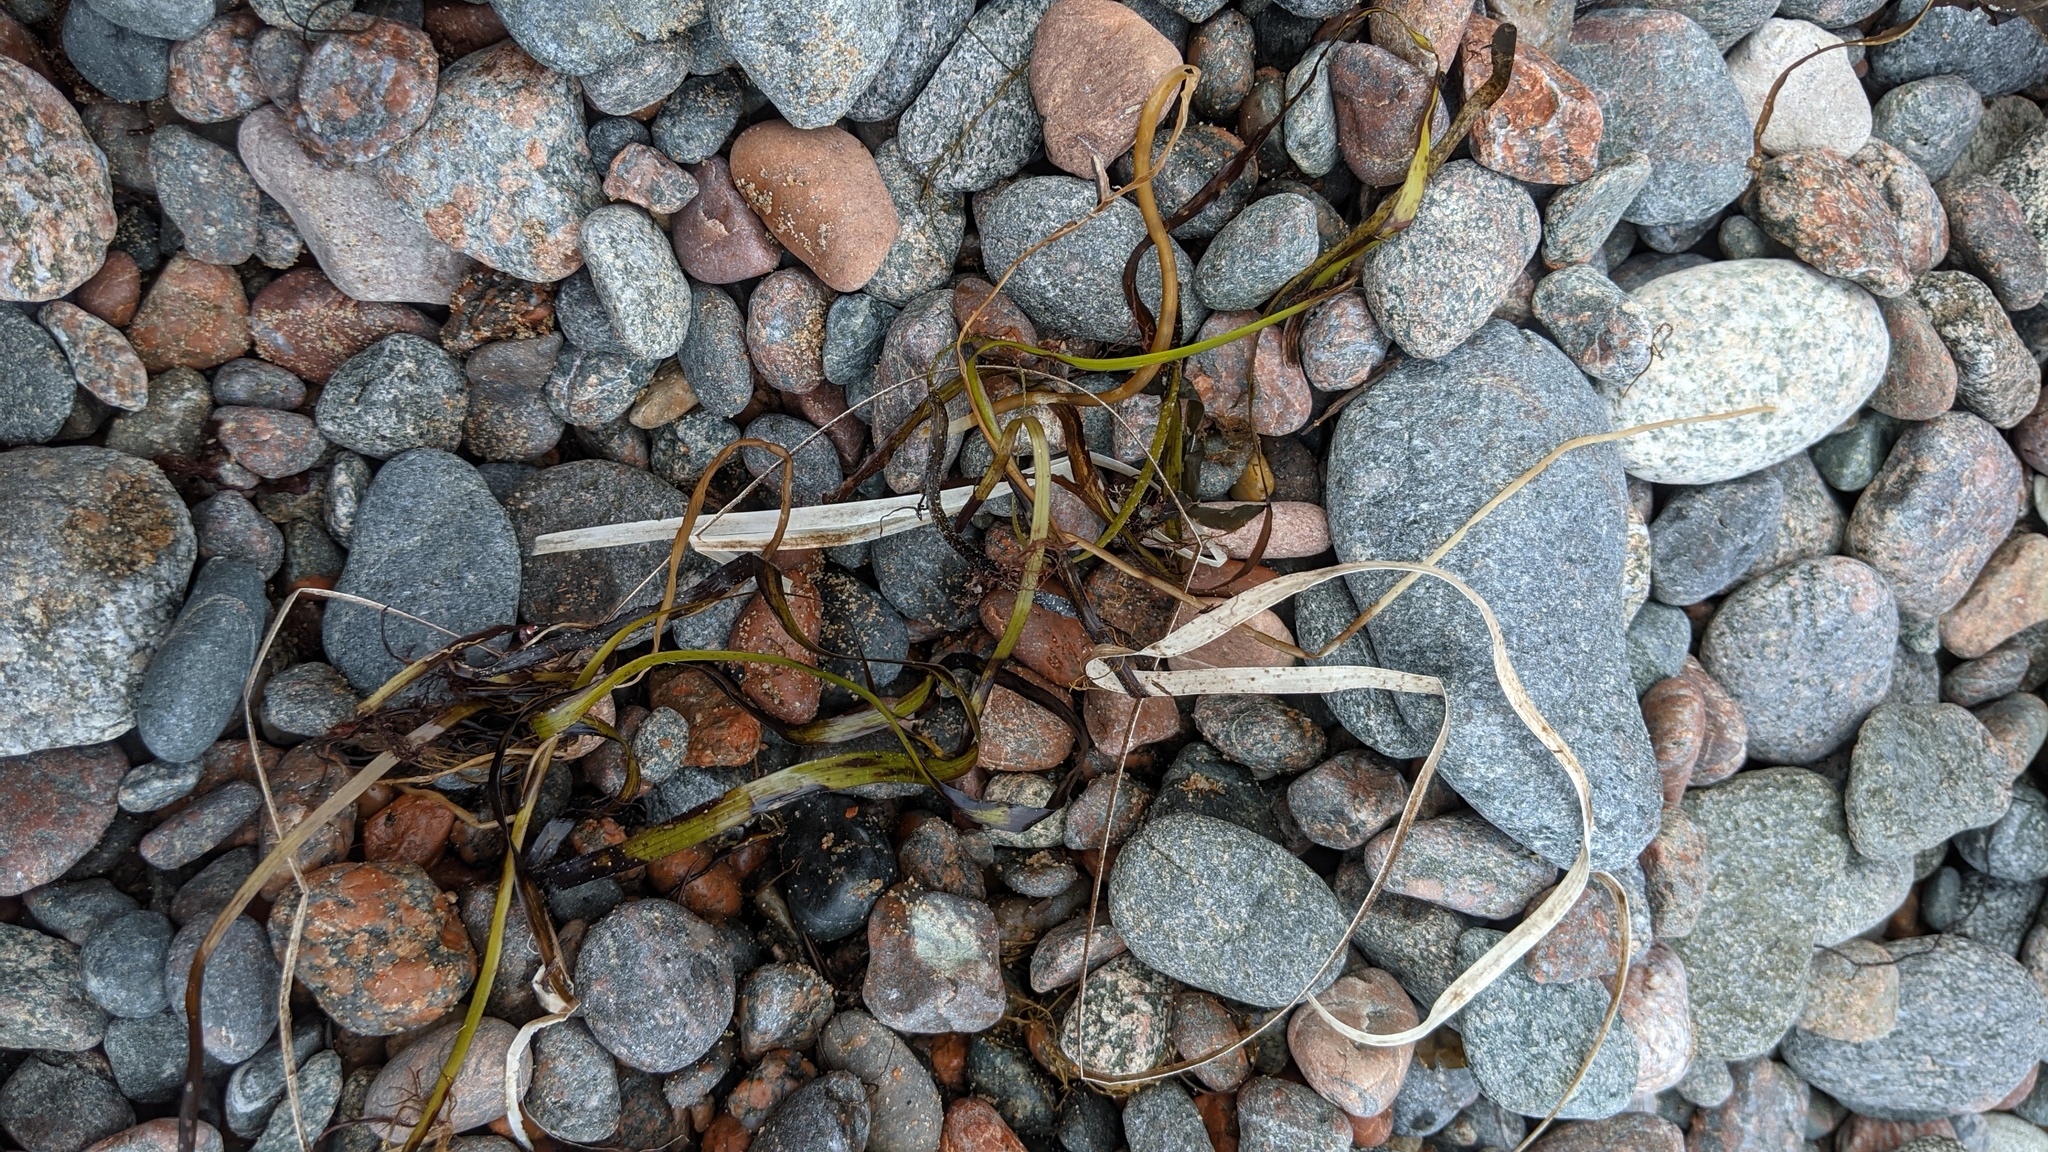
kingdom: Plantae
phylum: Tracheophyta
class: Liliopsida
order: Alismatales
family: Zosteraceae
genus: Zostera
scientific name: Zostera marina
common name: Eelgrass
